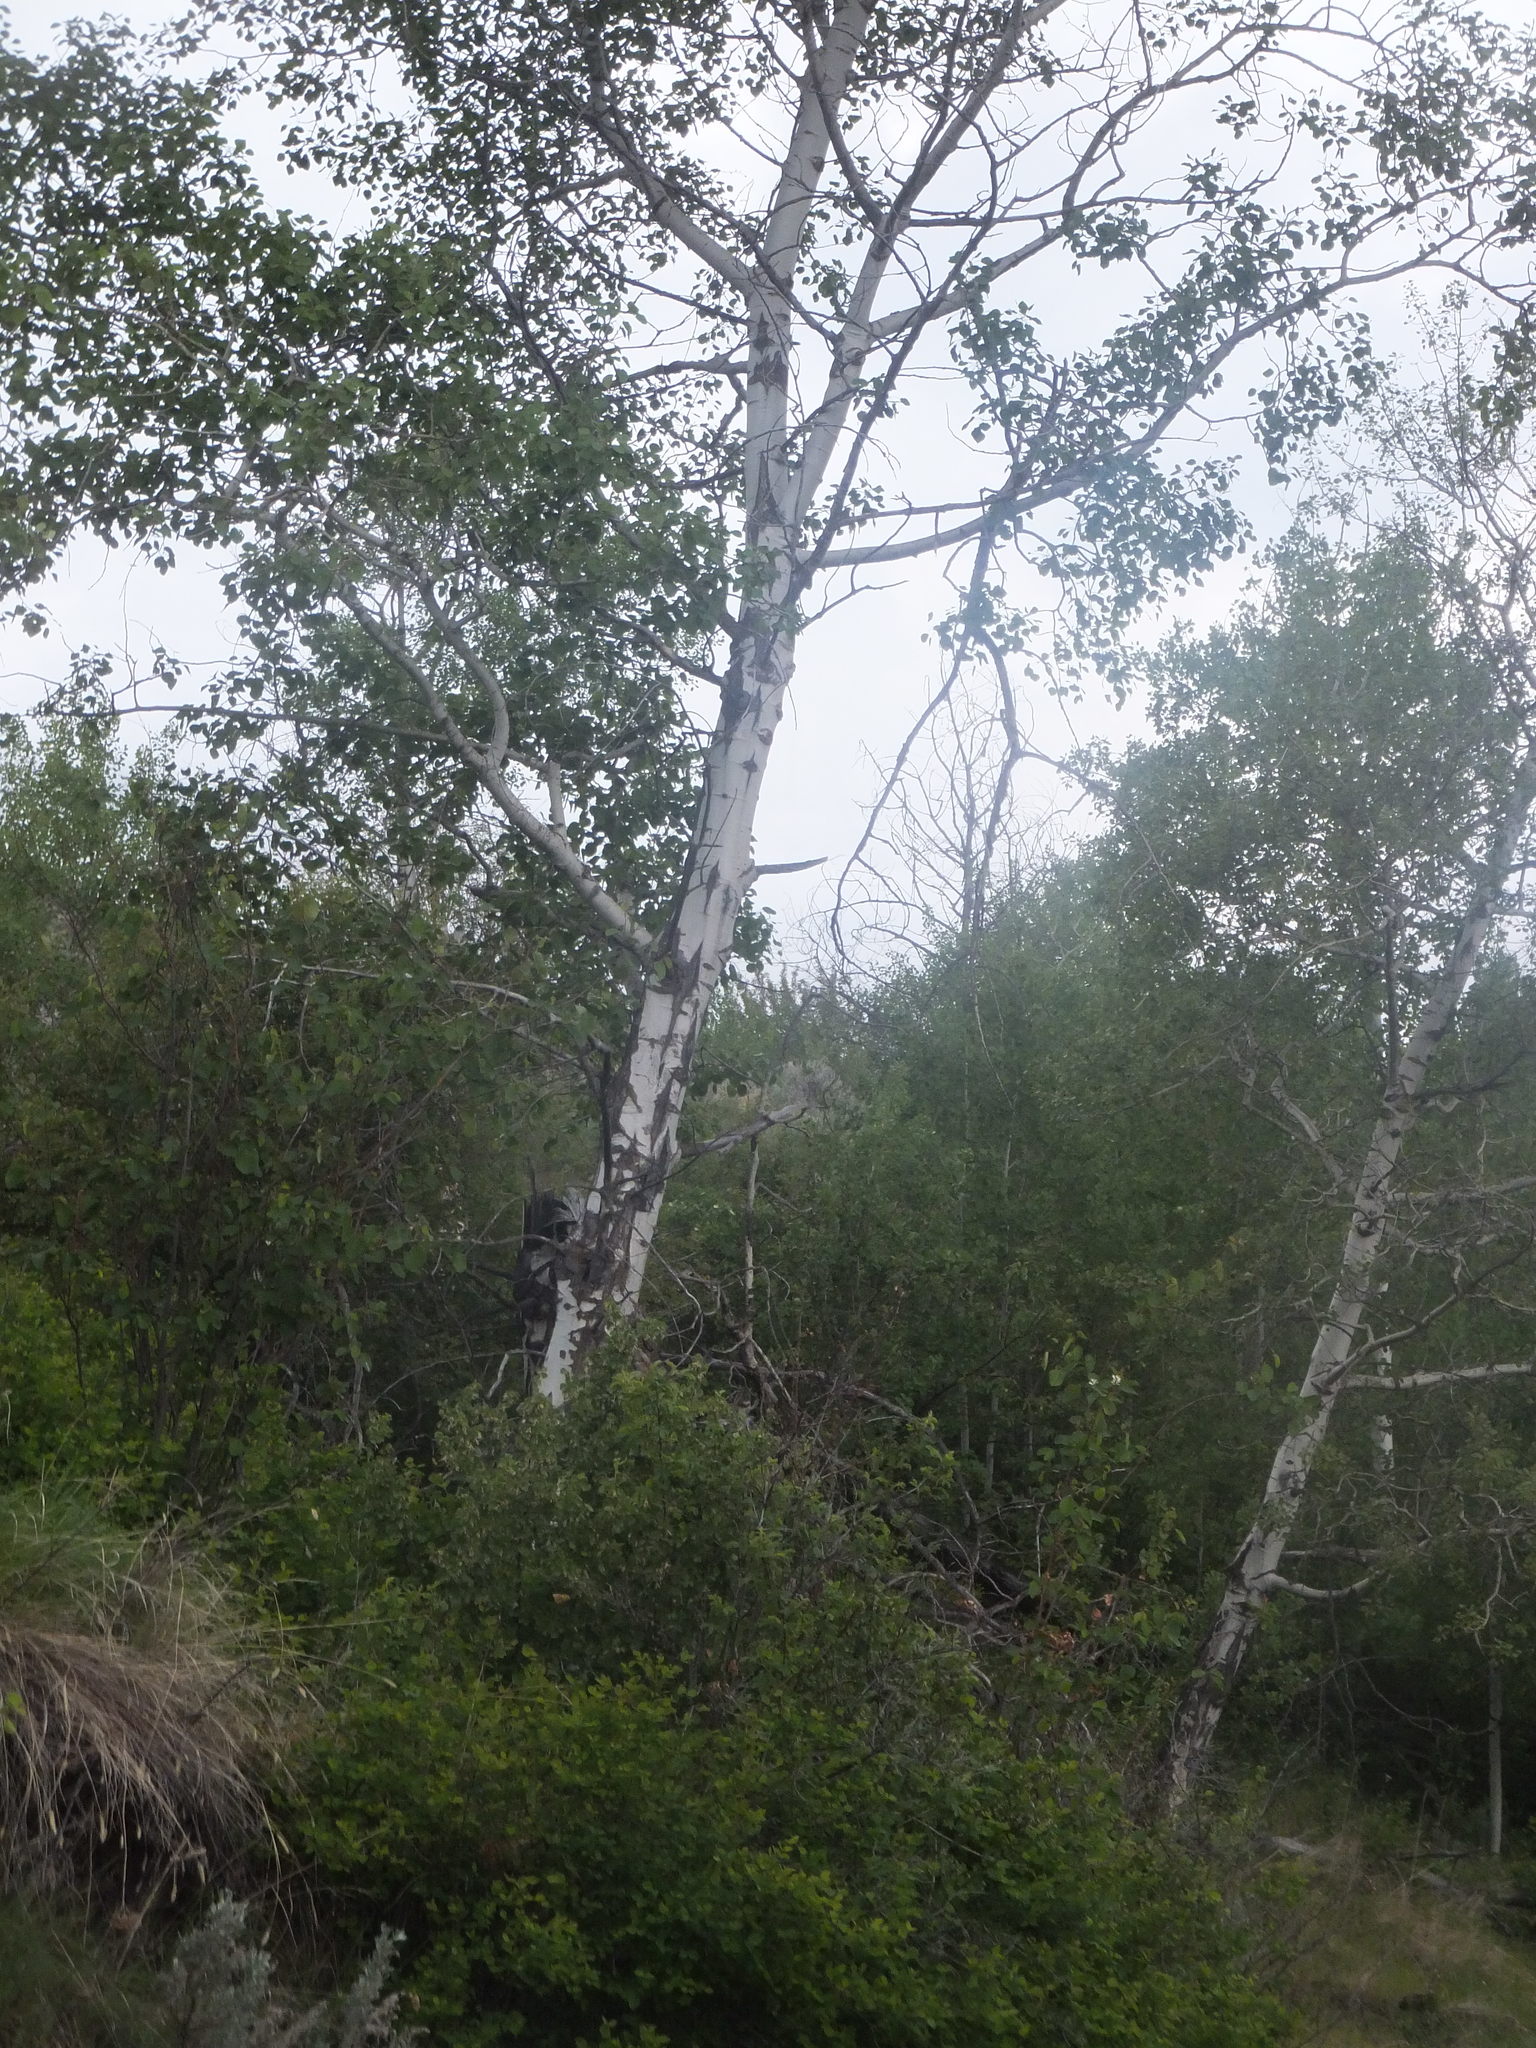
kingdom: Plantae
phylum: Tracheophyta
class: Magnoliopsida
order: Malpighiales
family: Salicaceae
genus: Populus
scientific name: Populus tremuloides
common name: Quaking aspen
